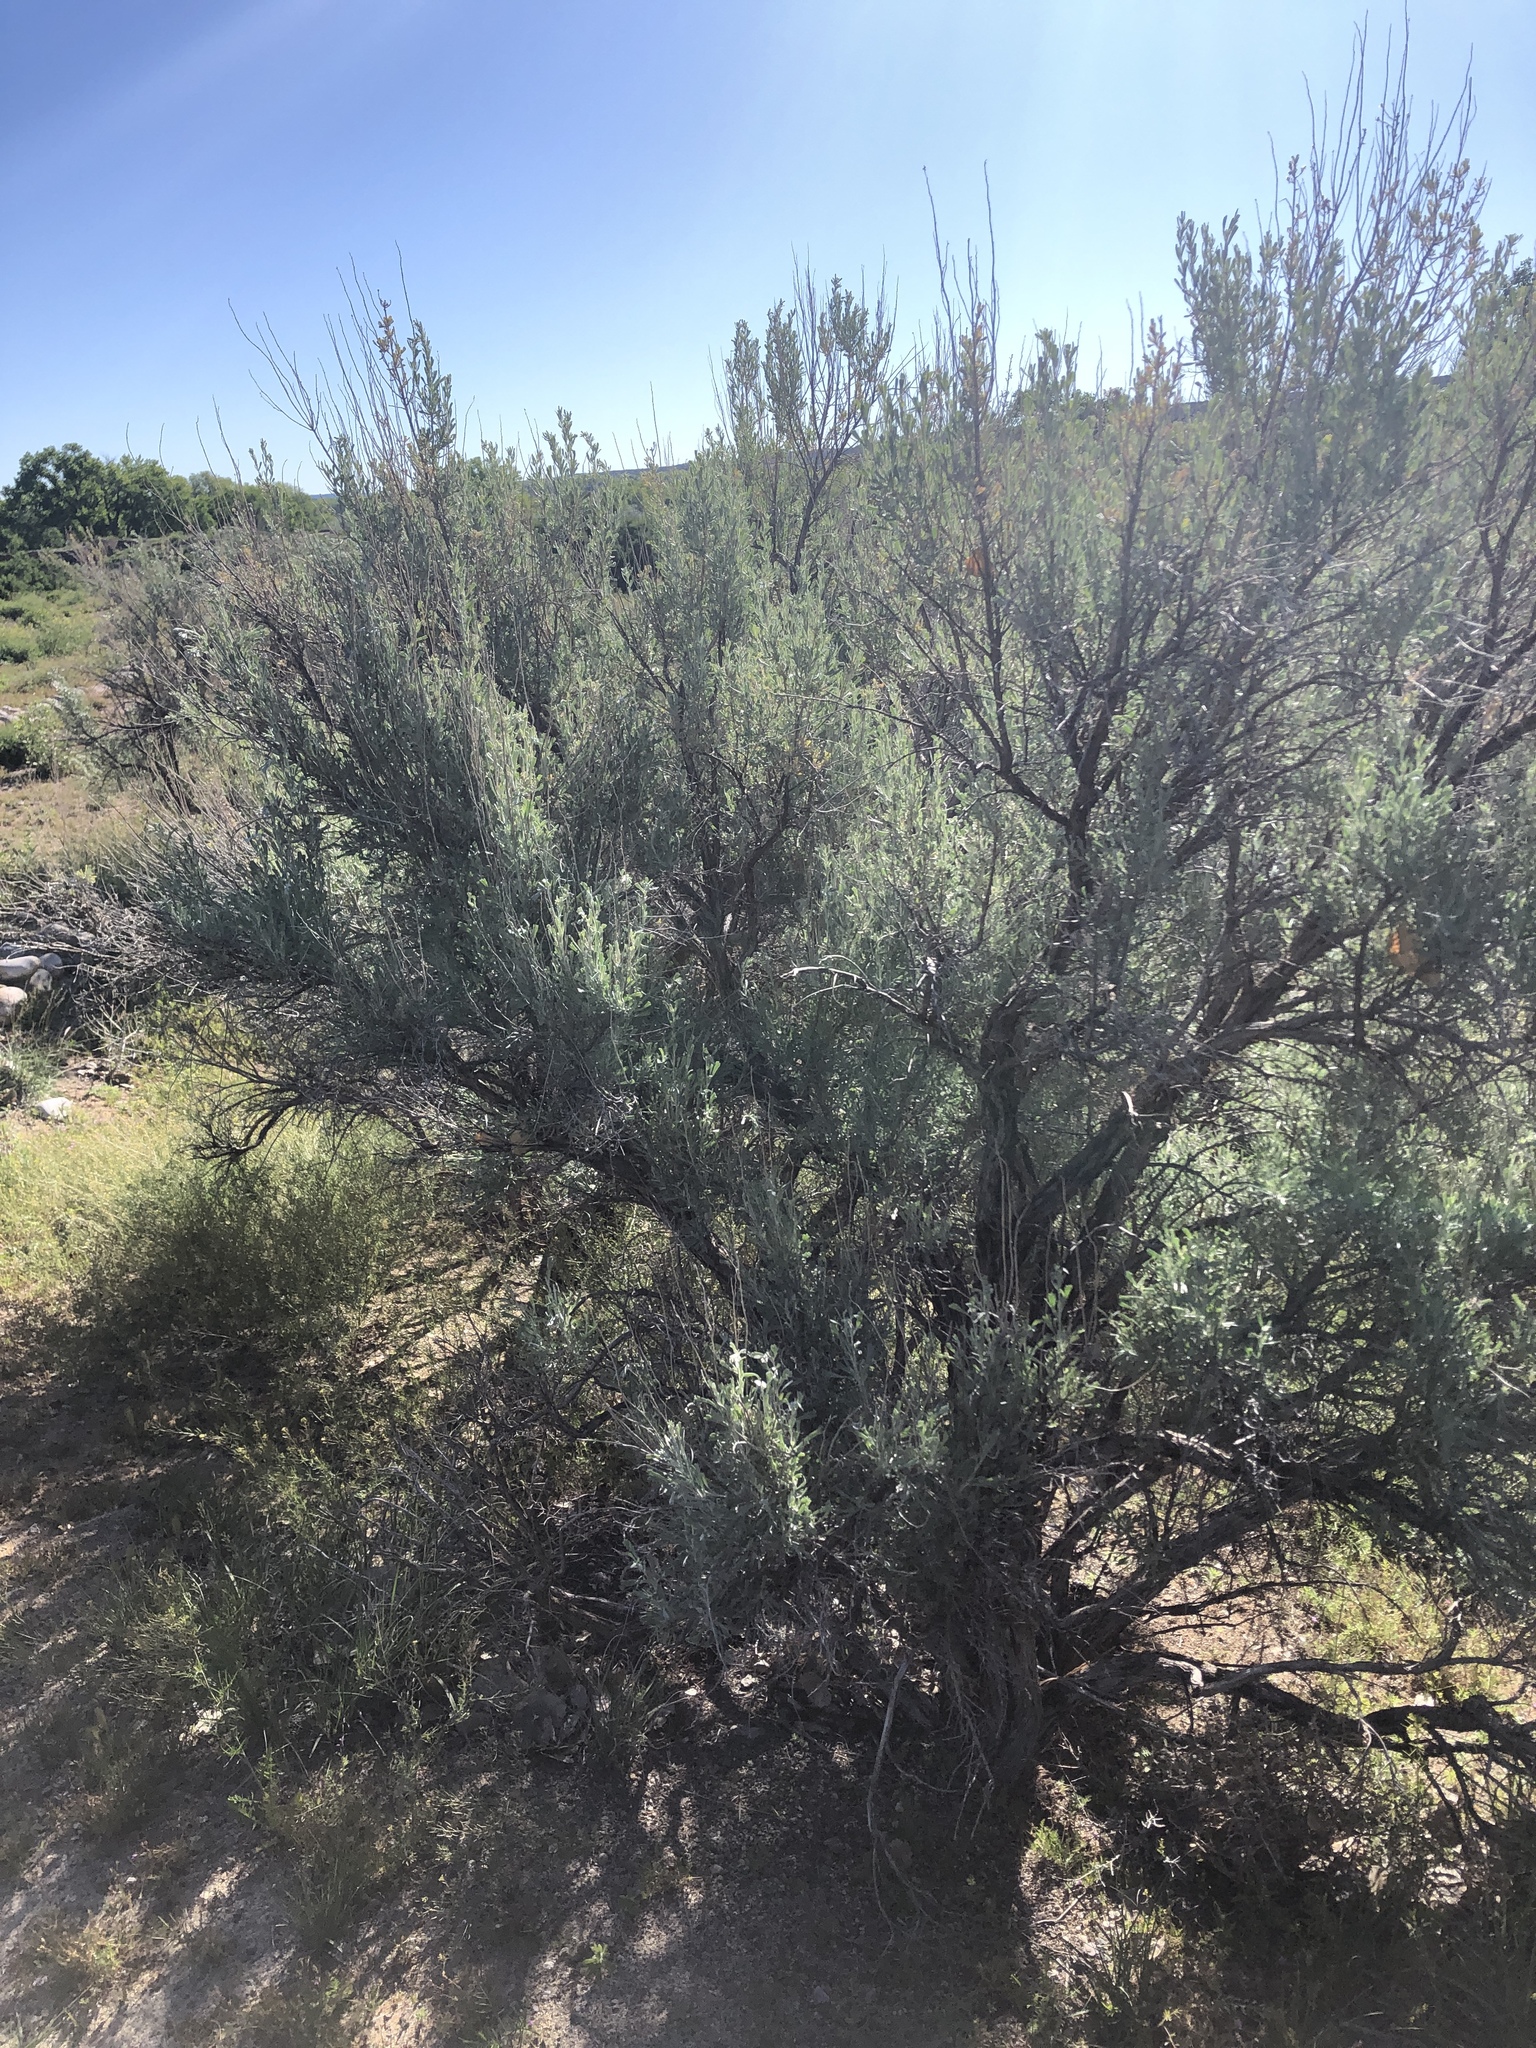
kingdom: Plantae
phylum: Tracheophyta
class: Magnoliopsida
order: Asterales
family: Asteraceae
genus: Artemisia
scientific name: Artemisia tridentata
